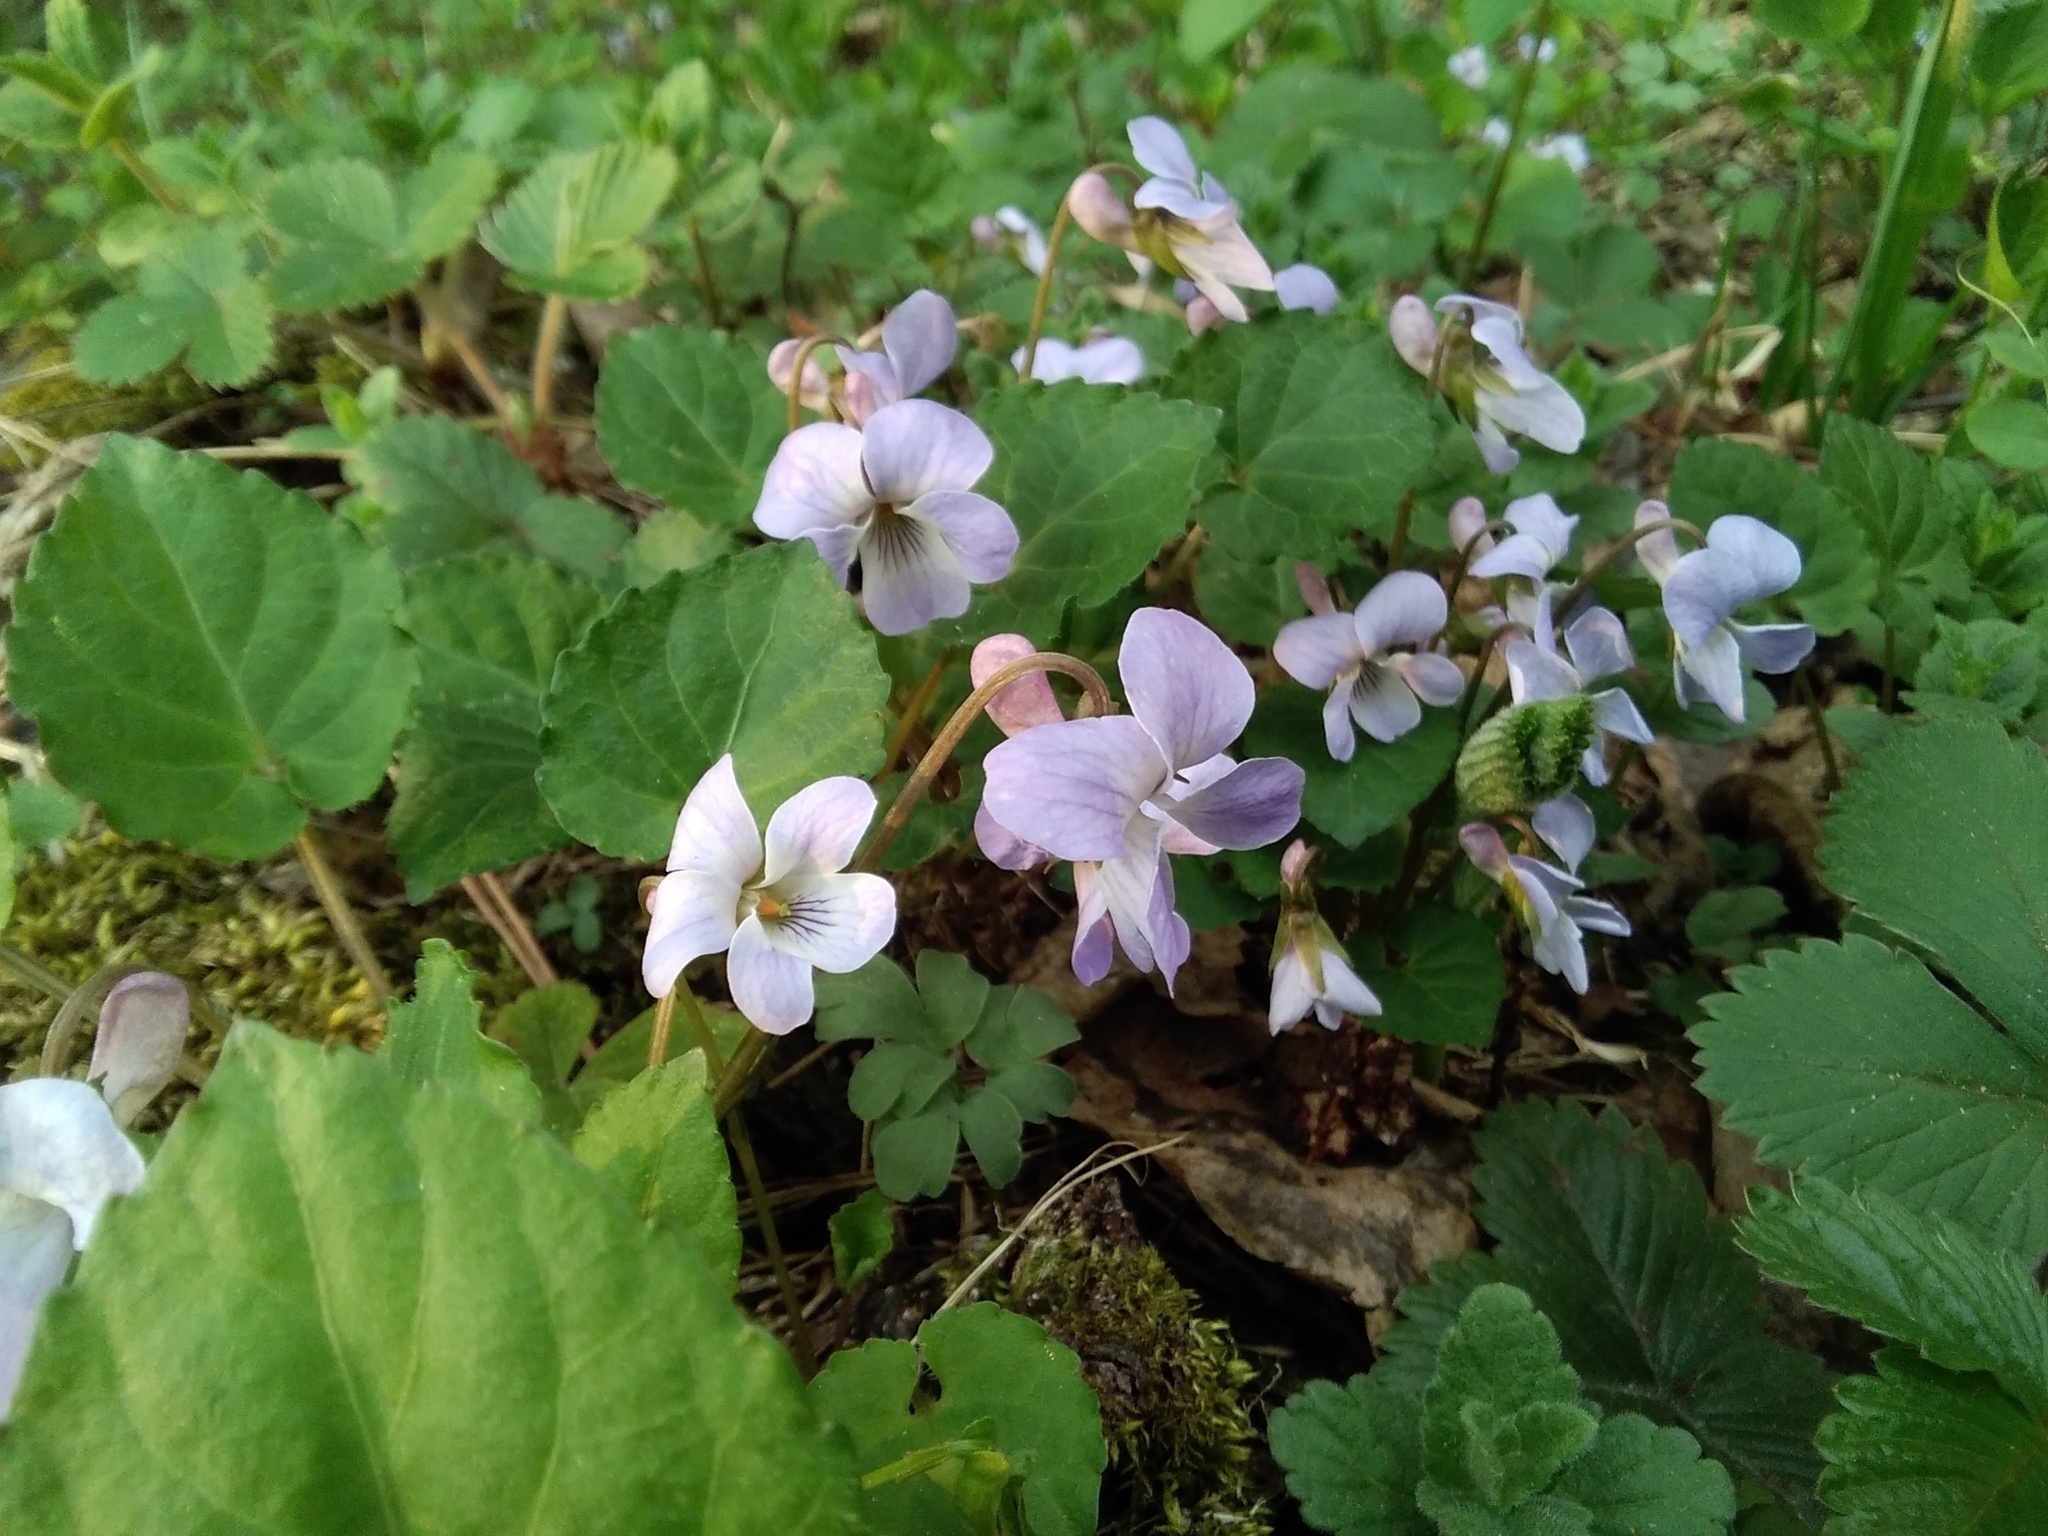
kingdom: Plantae
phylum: Tracheophyta
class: Magnoliopsida
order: Malpighiales
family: Violaceae
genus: Viola
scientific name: Viola selkirkii
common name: Selkirk's violet
